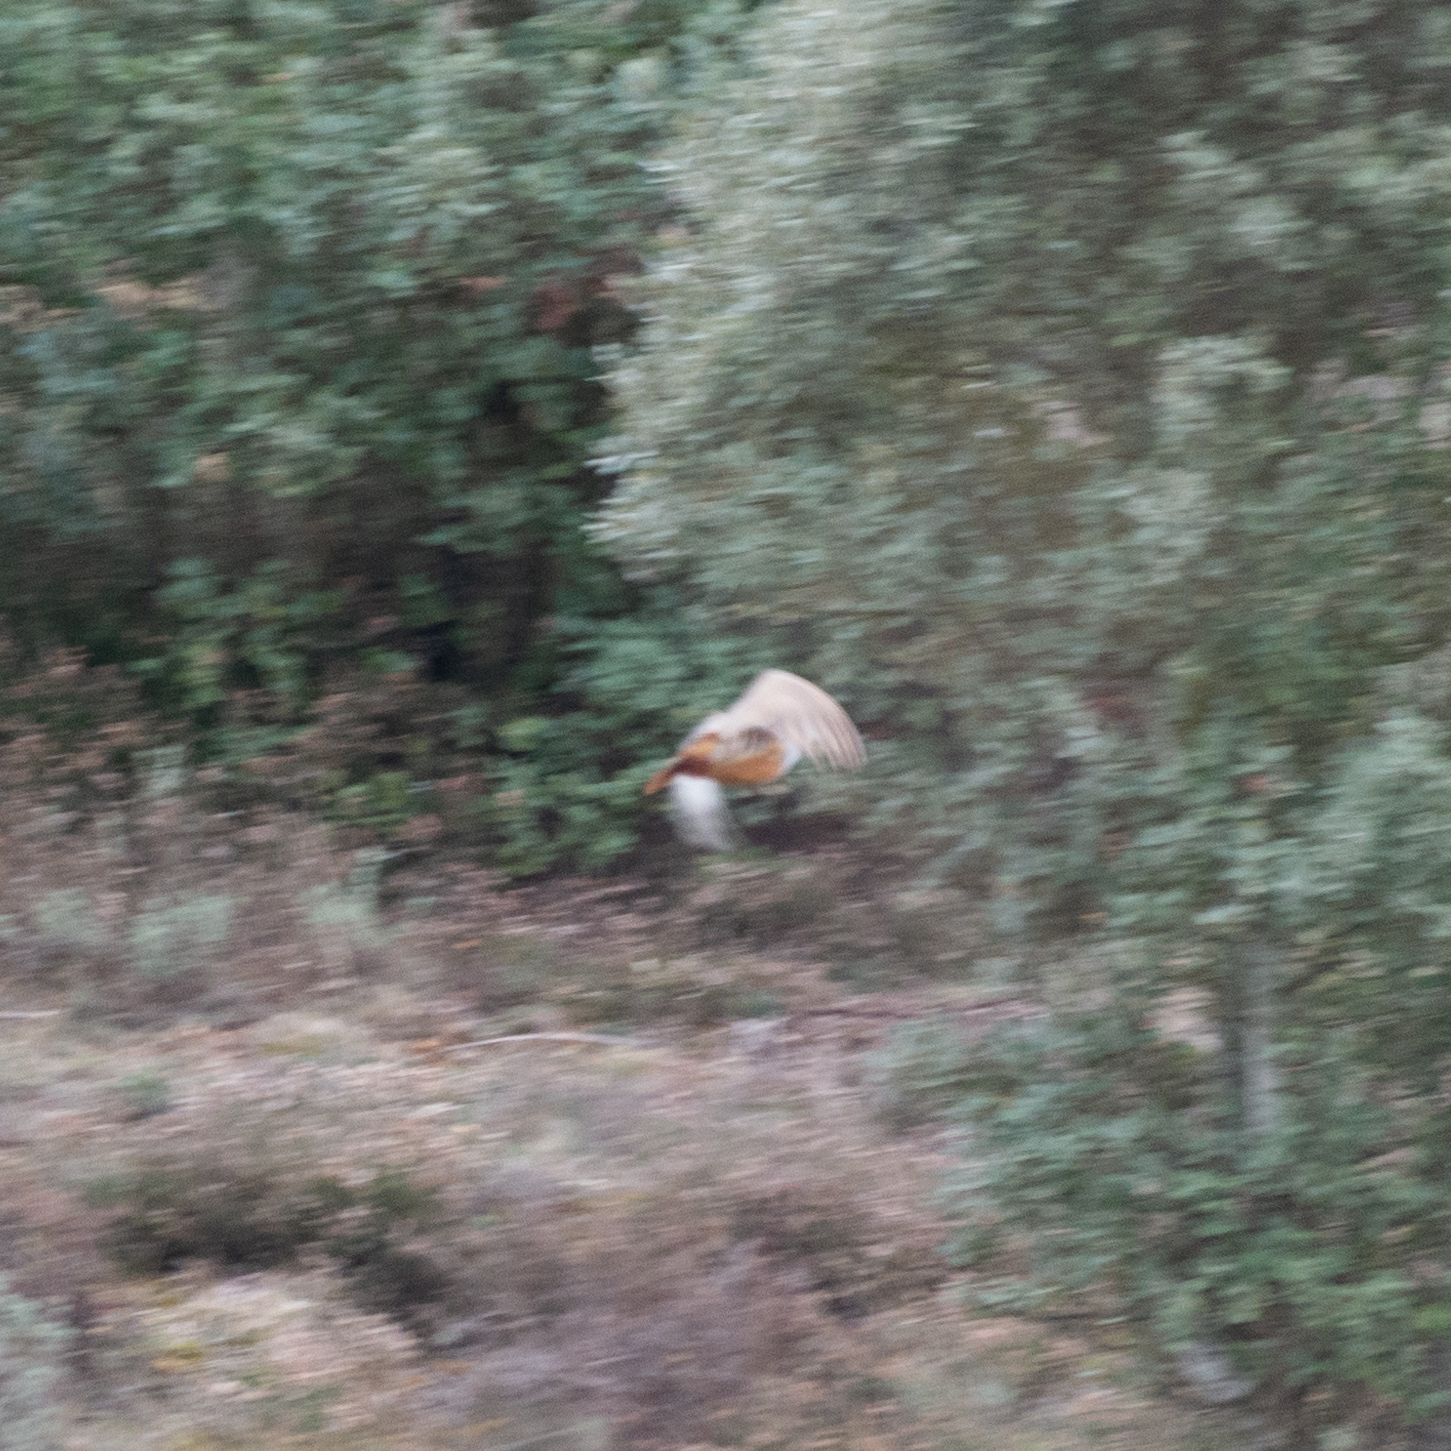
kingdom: Animalia
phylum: Chordata
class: Aves
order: Galliformes
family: Phasianidae
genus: Alectoris
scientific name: Alectoris rufa
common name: Red-legged partridge
